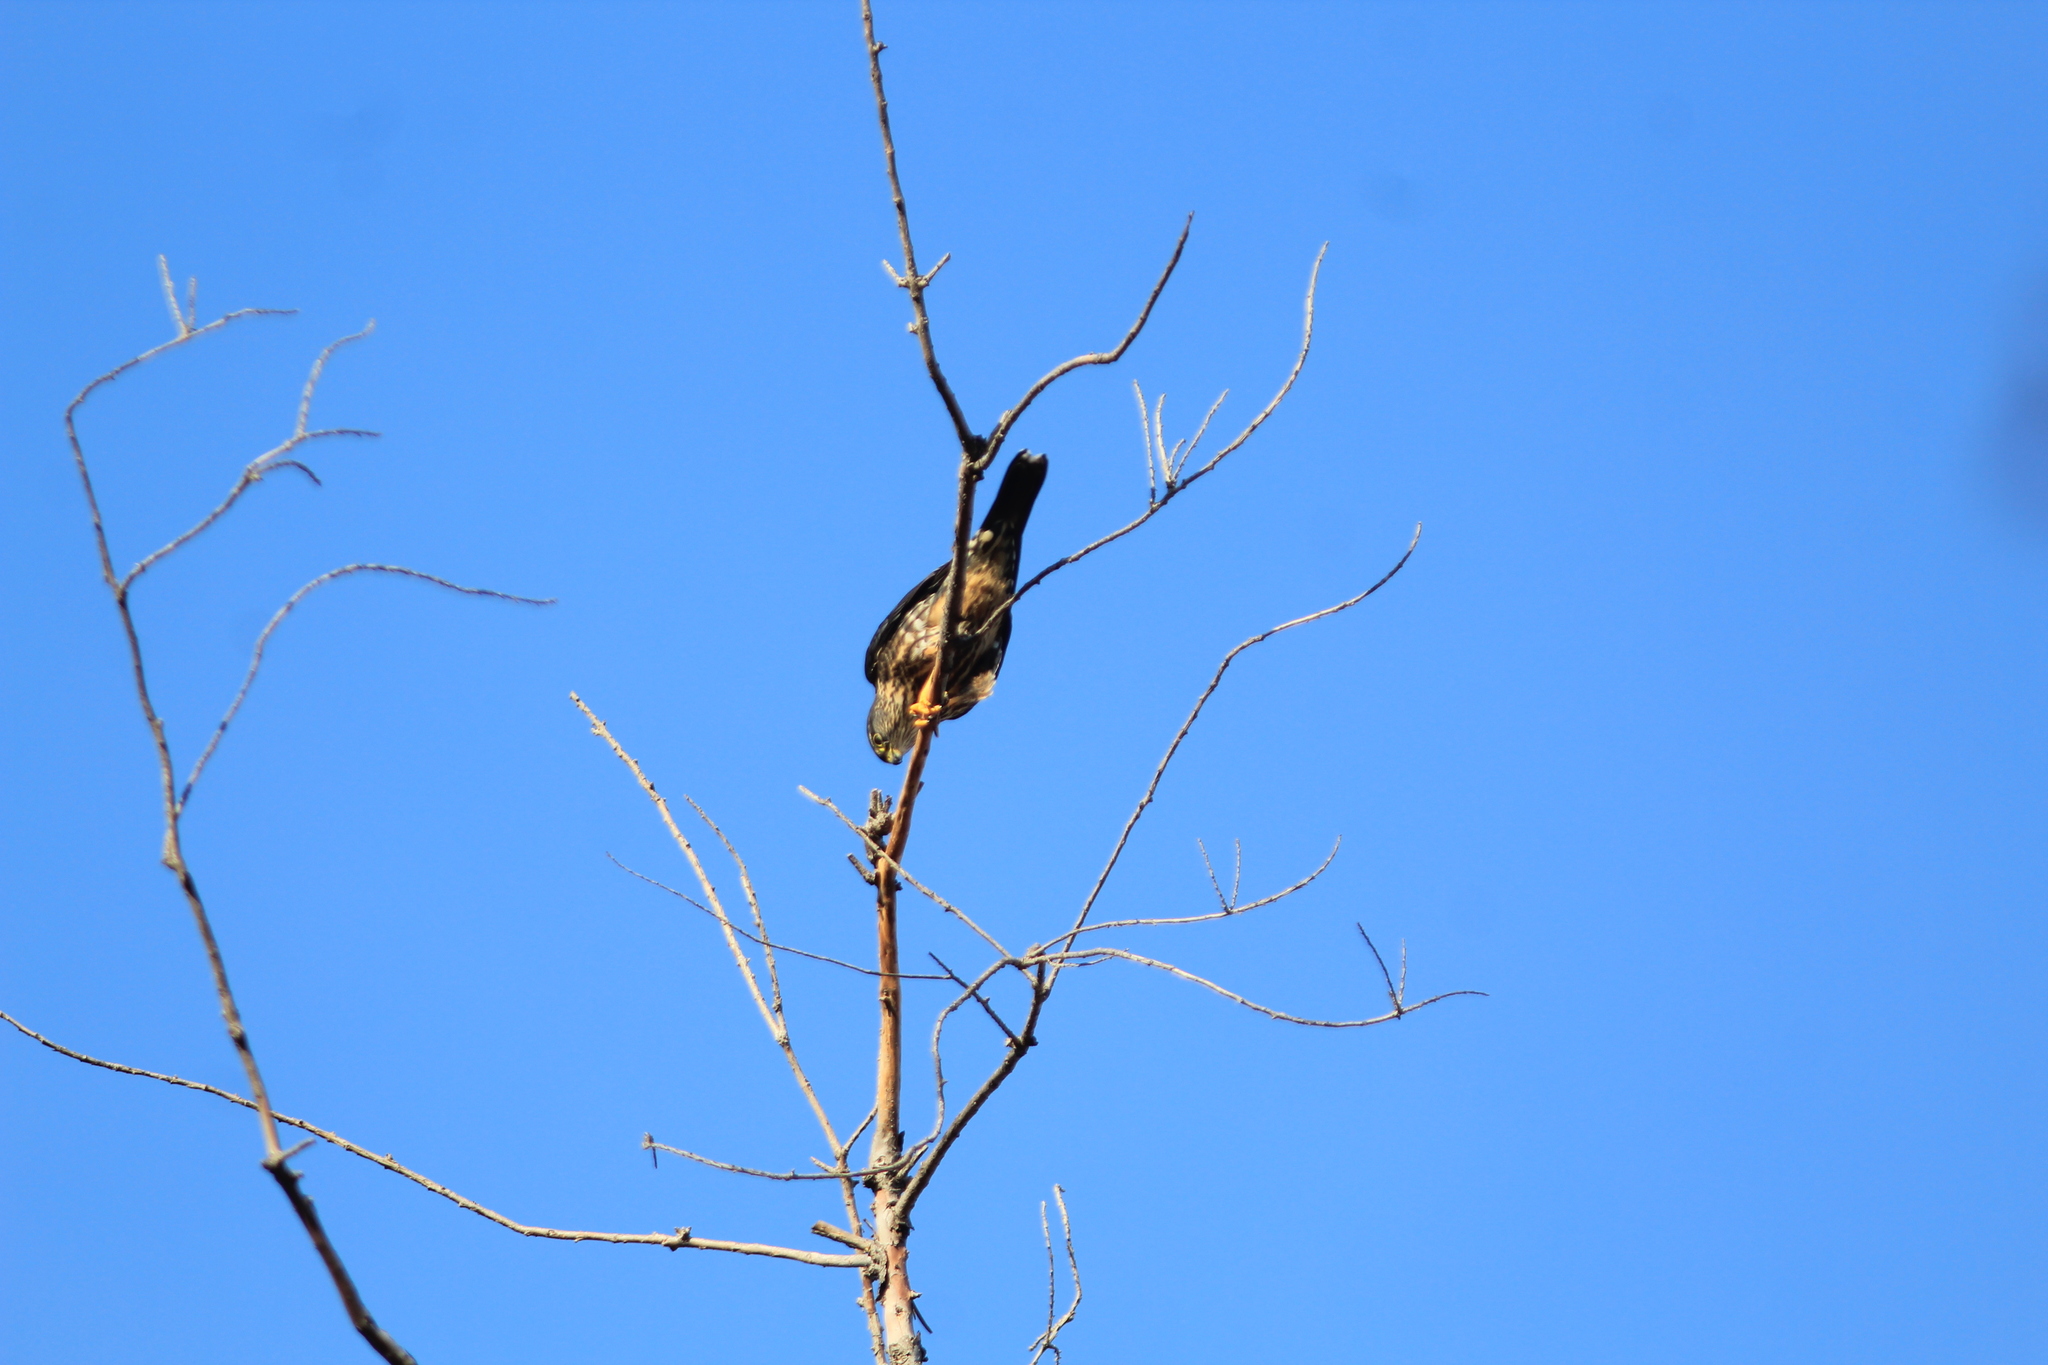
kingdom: Animalia
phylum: Chordata
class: Aves
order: Falconiformes
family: Falconidae
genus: Falco
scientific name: Falco columbarius
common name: Merlin
